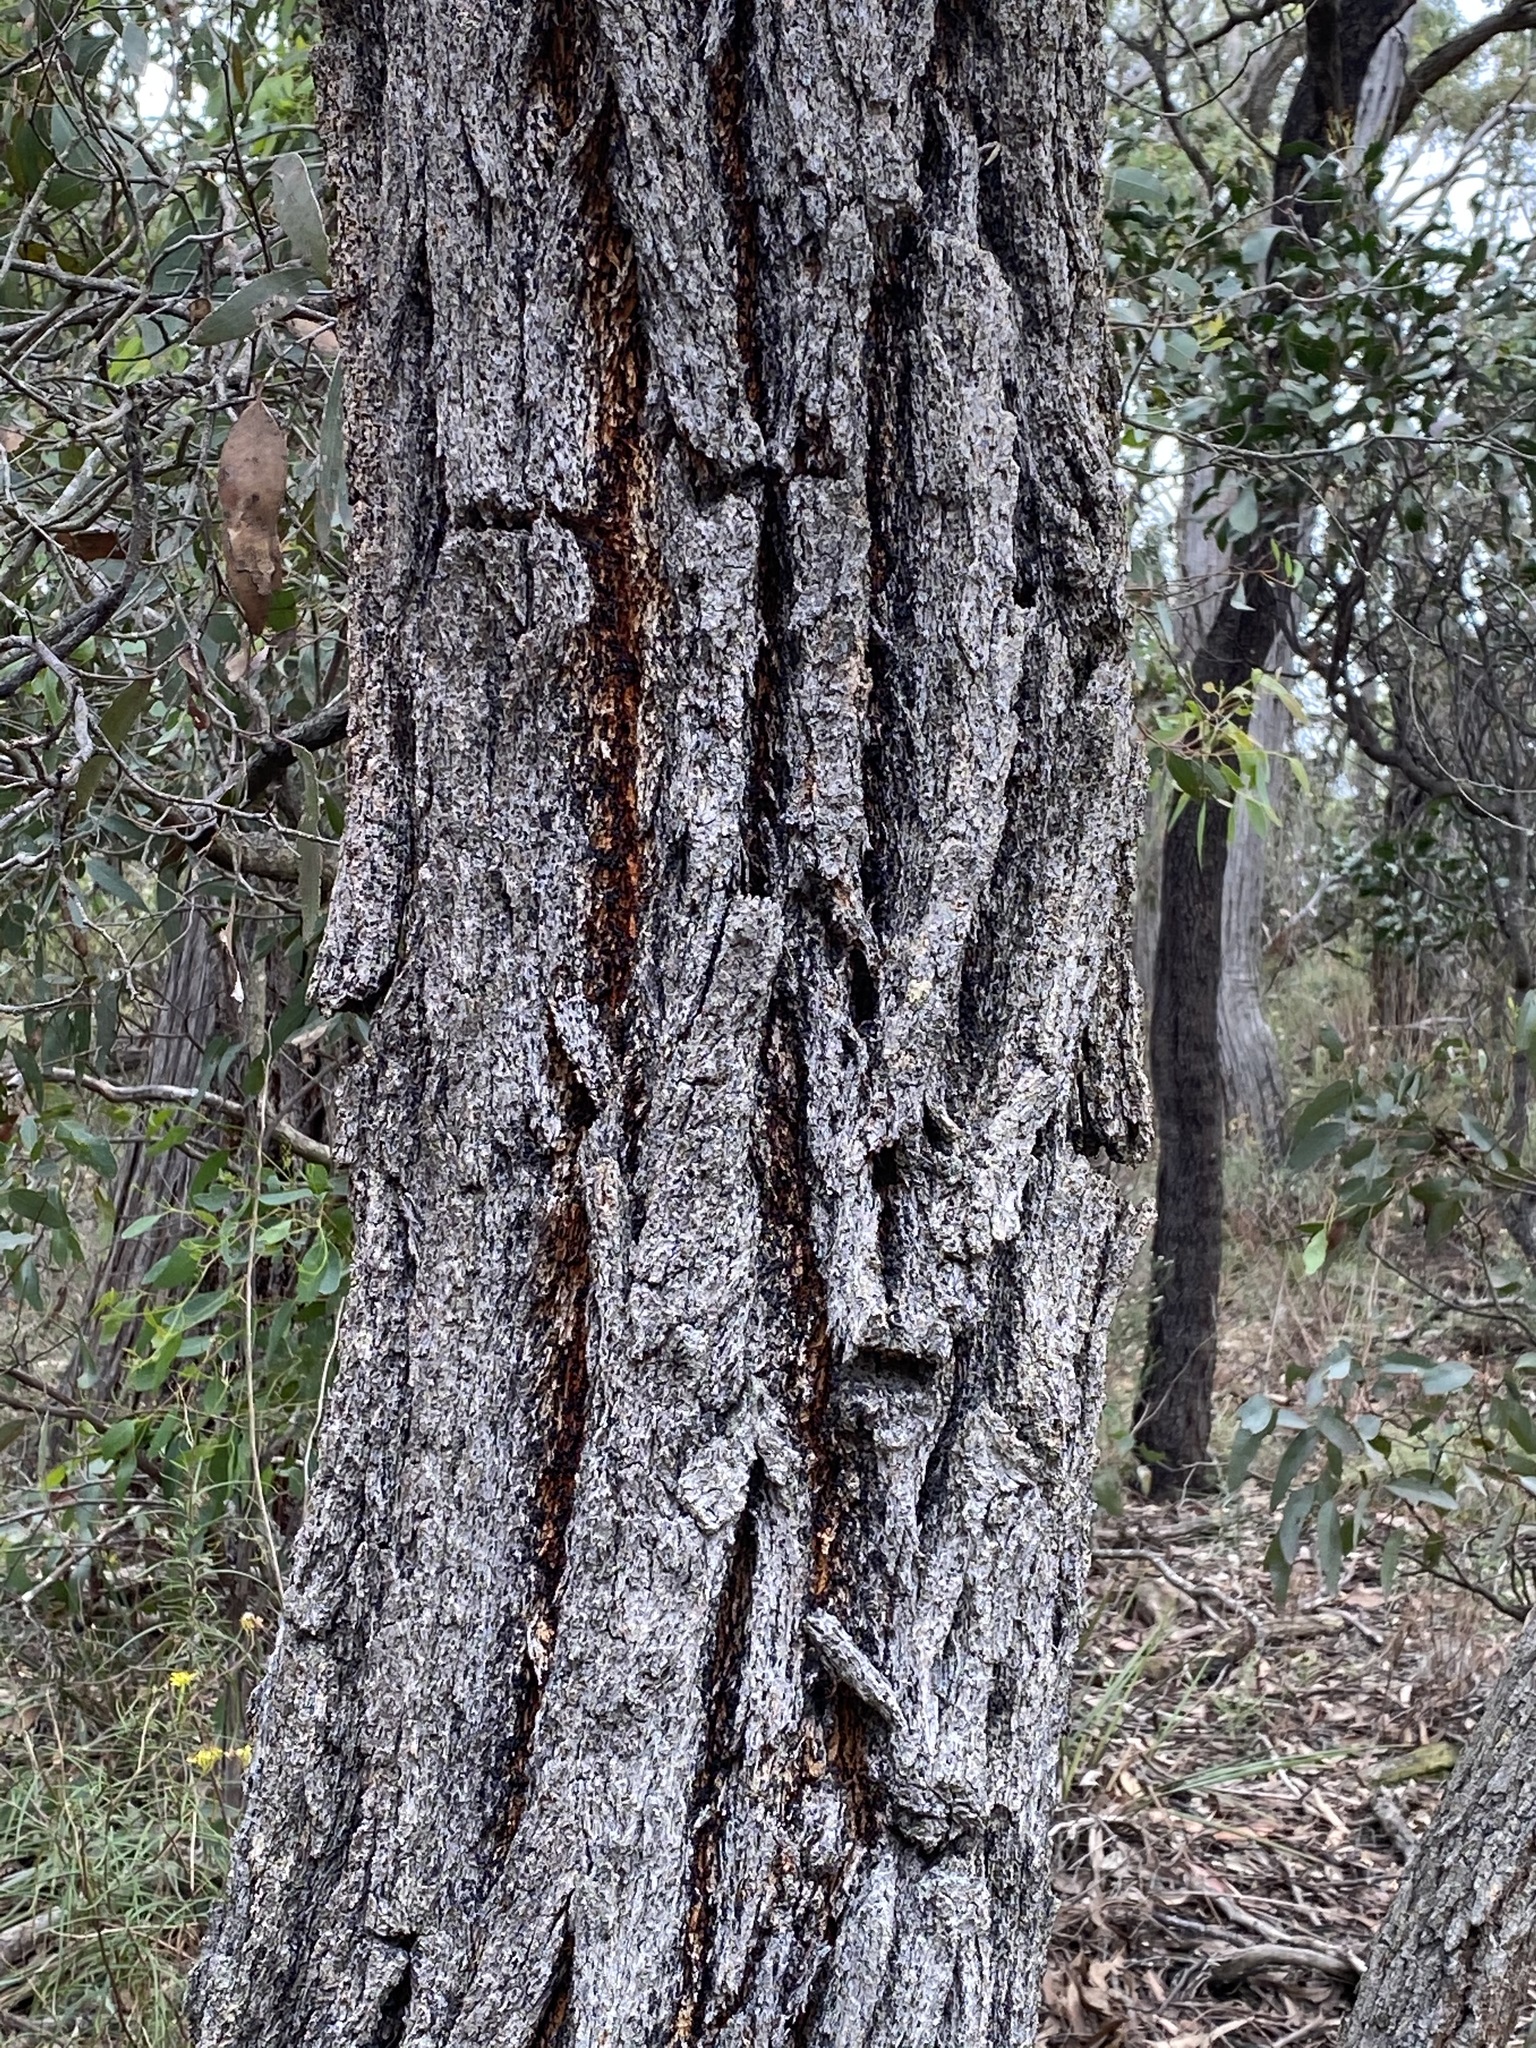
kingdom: Plantae
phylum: Tracheophyta
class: Magnoliopsida
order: Myrtales
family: Myrtaceae
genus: Eucalyptus
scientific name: Eucalyptus tricarpa
